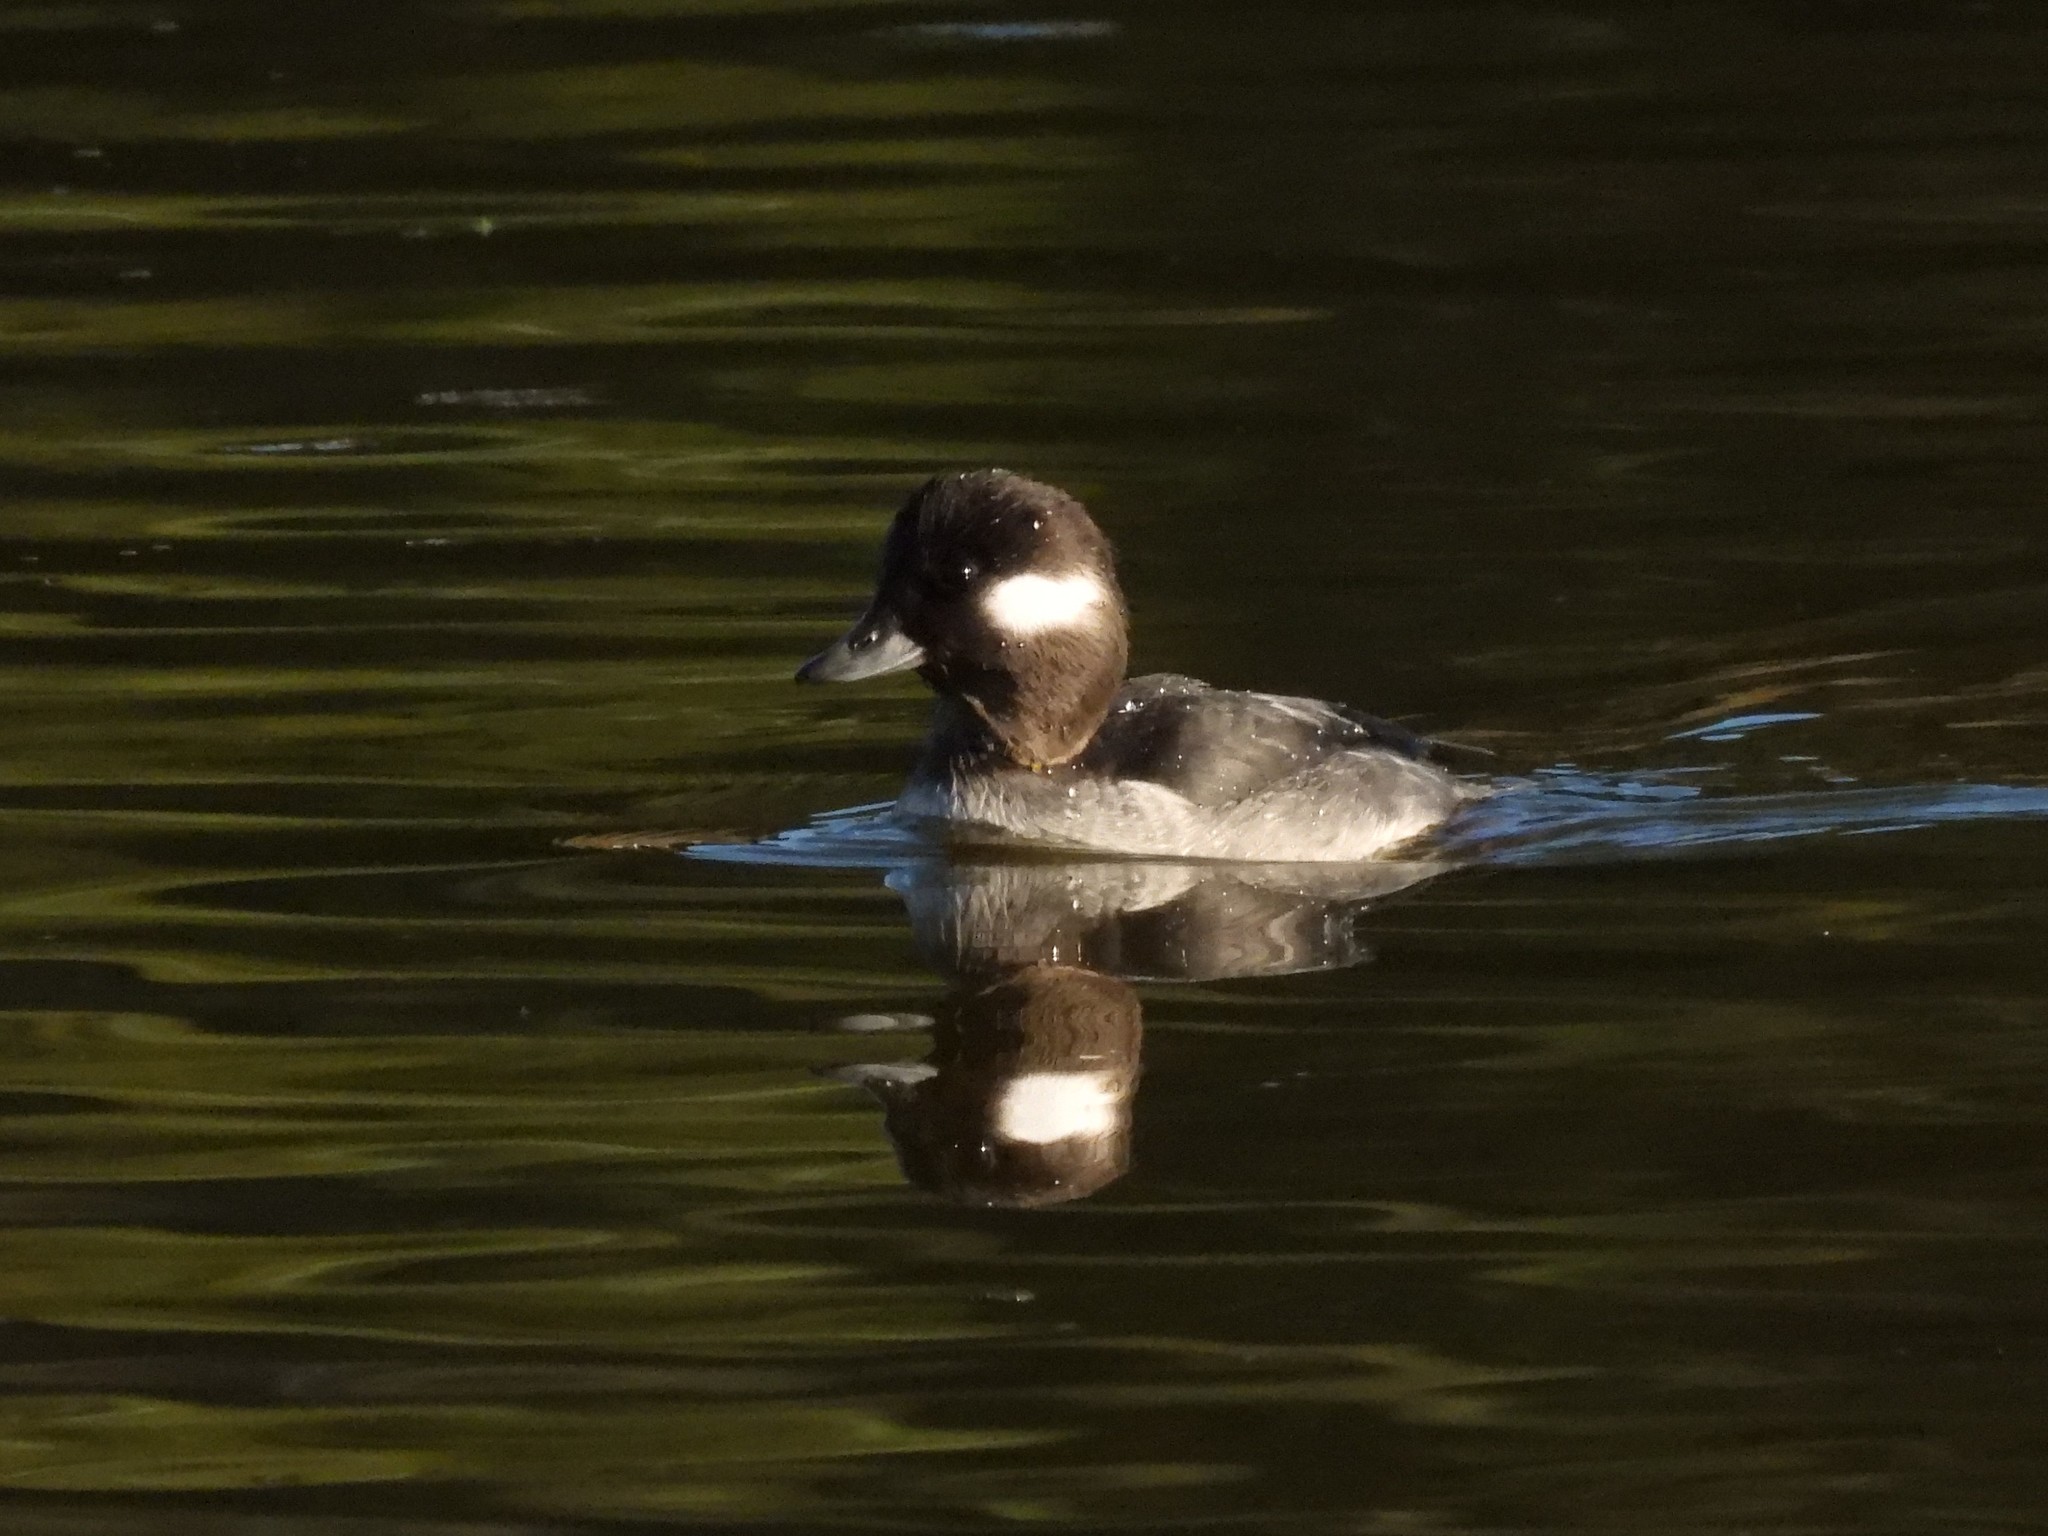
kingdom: Animalia
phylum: Chordata
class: Aves
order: Anseriformes
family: Anatidae
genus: Bucephala
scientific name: Bucephala albeola
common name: Bufflehead
